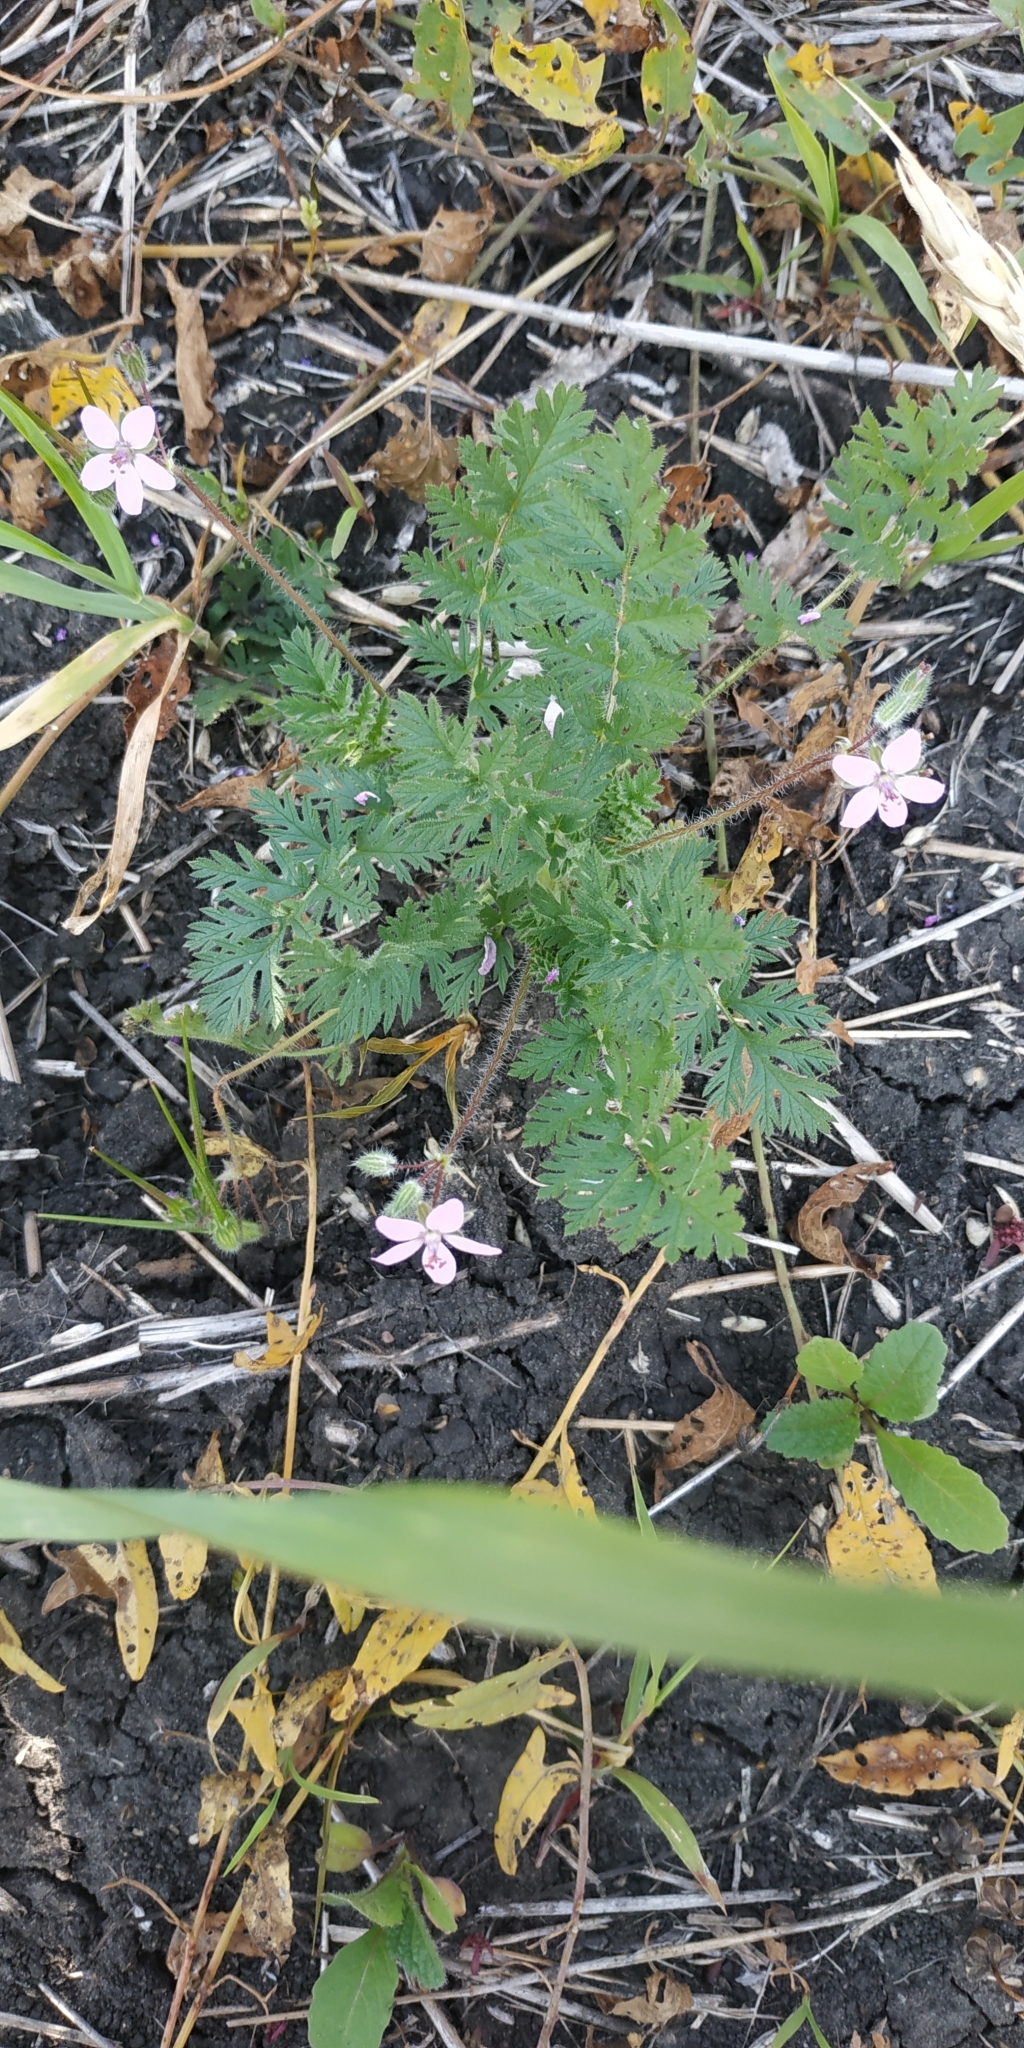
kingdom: Plantae
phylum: Tracheophyta
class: Magnoliopsida
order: Geraniales
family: Geraniaceae
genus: Erodium
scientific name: Erodium cicutarium
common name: Common stork's-bill
